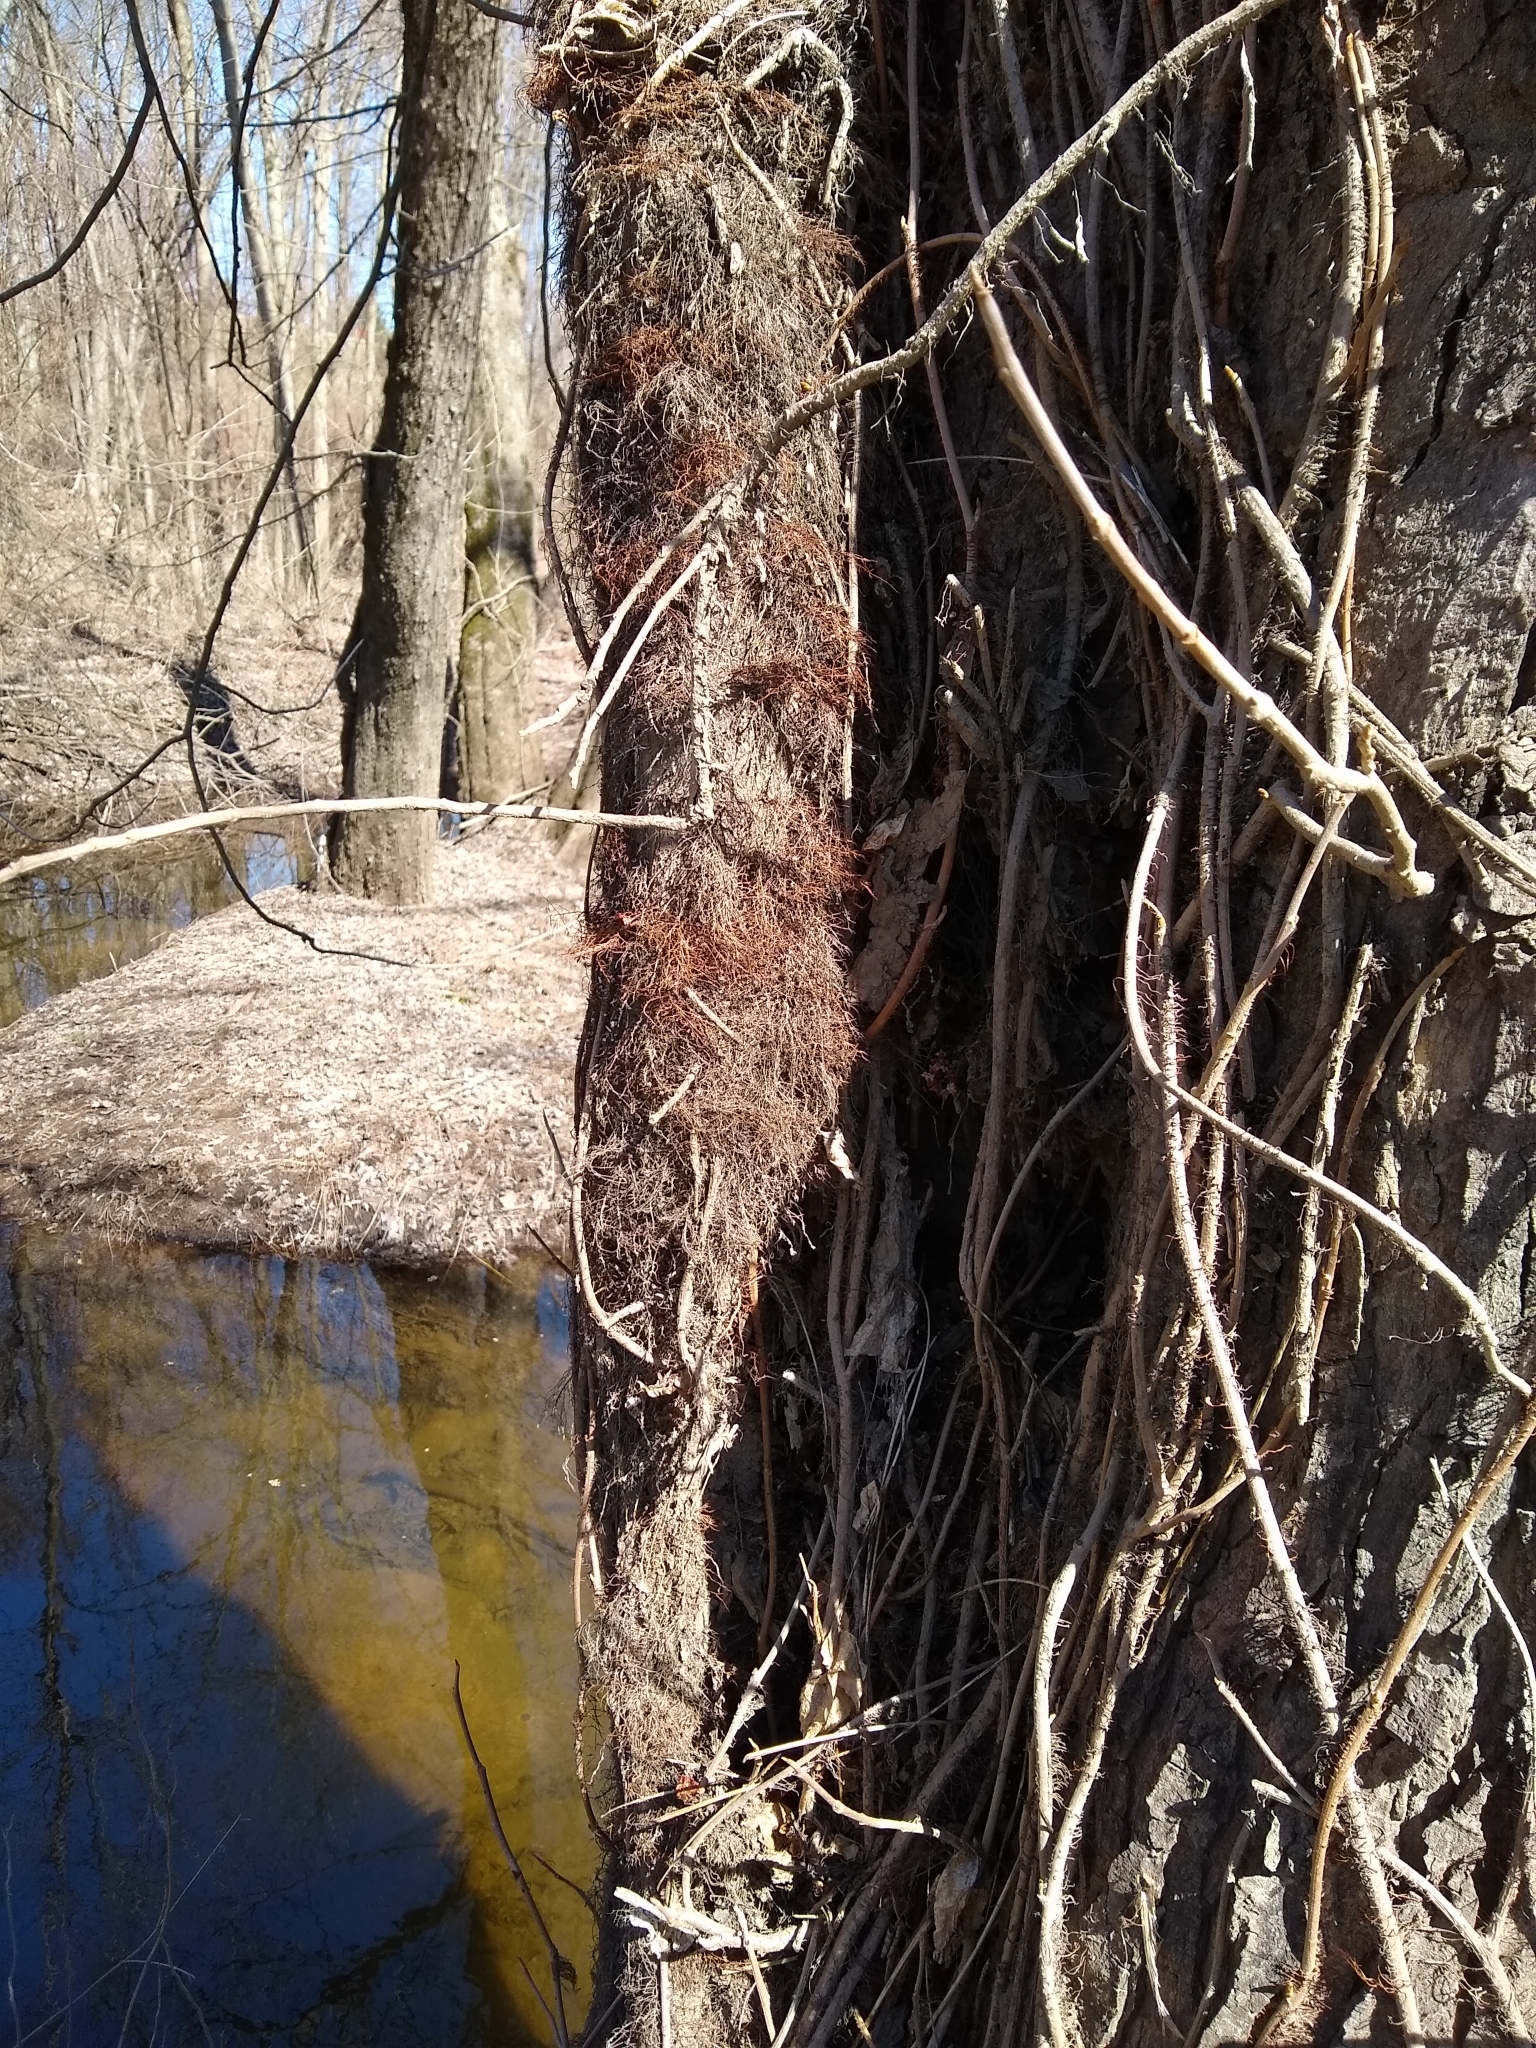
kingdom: Plantae
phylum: Tracheophyta
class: Magnoliopsida
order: Sapindales
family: Anacardiaceae
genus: Toxicodendron
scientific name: Toxicodendron radicans
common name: Poison ivy
